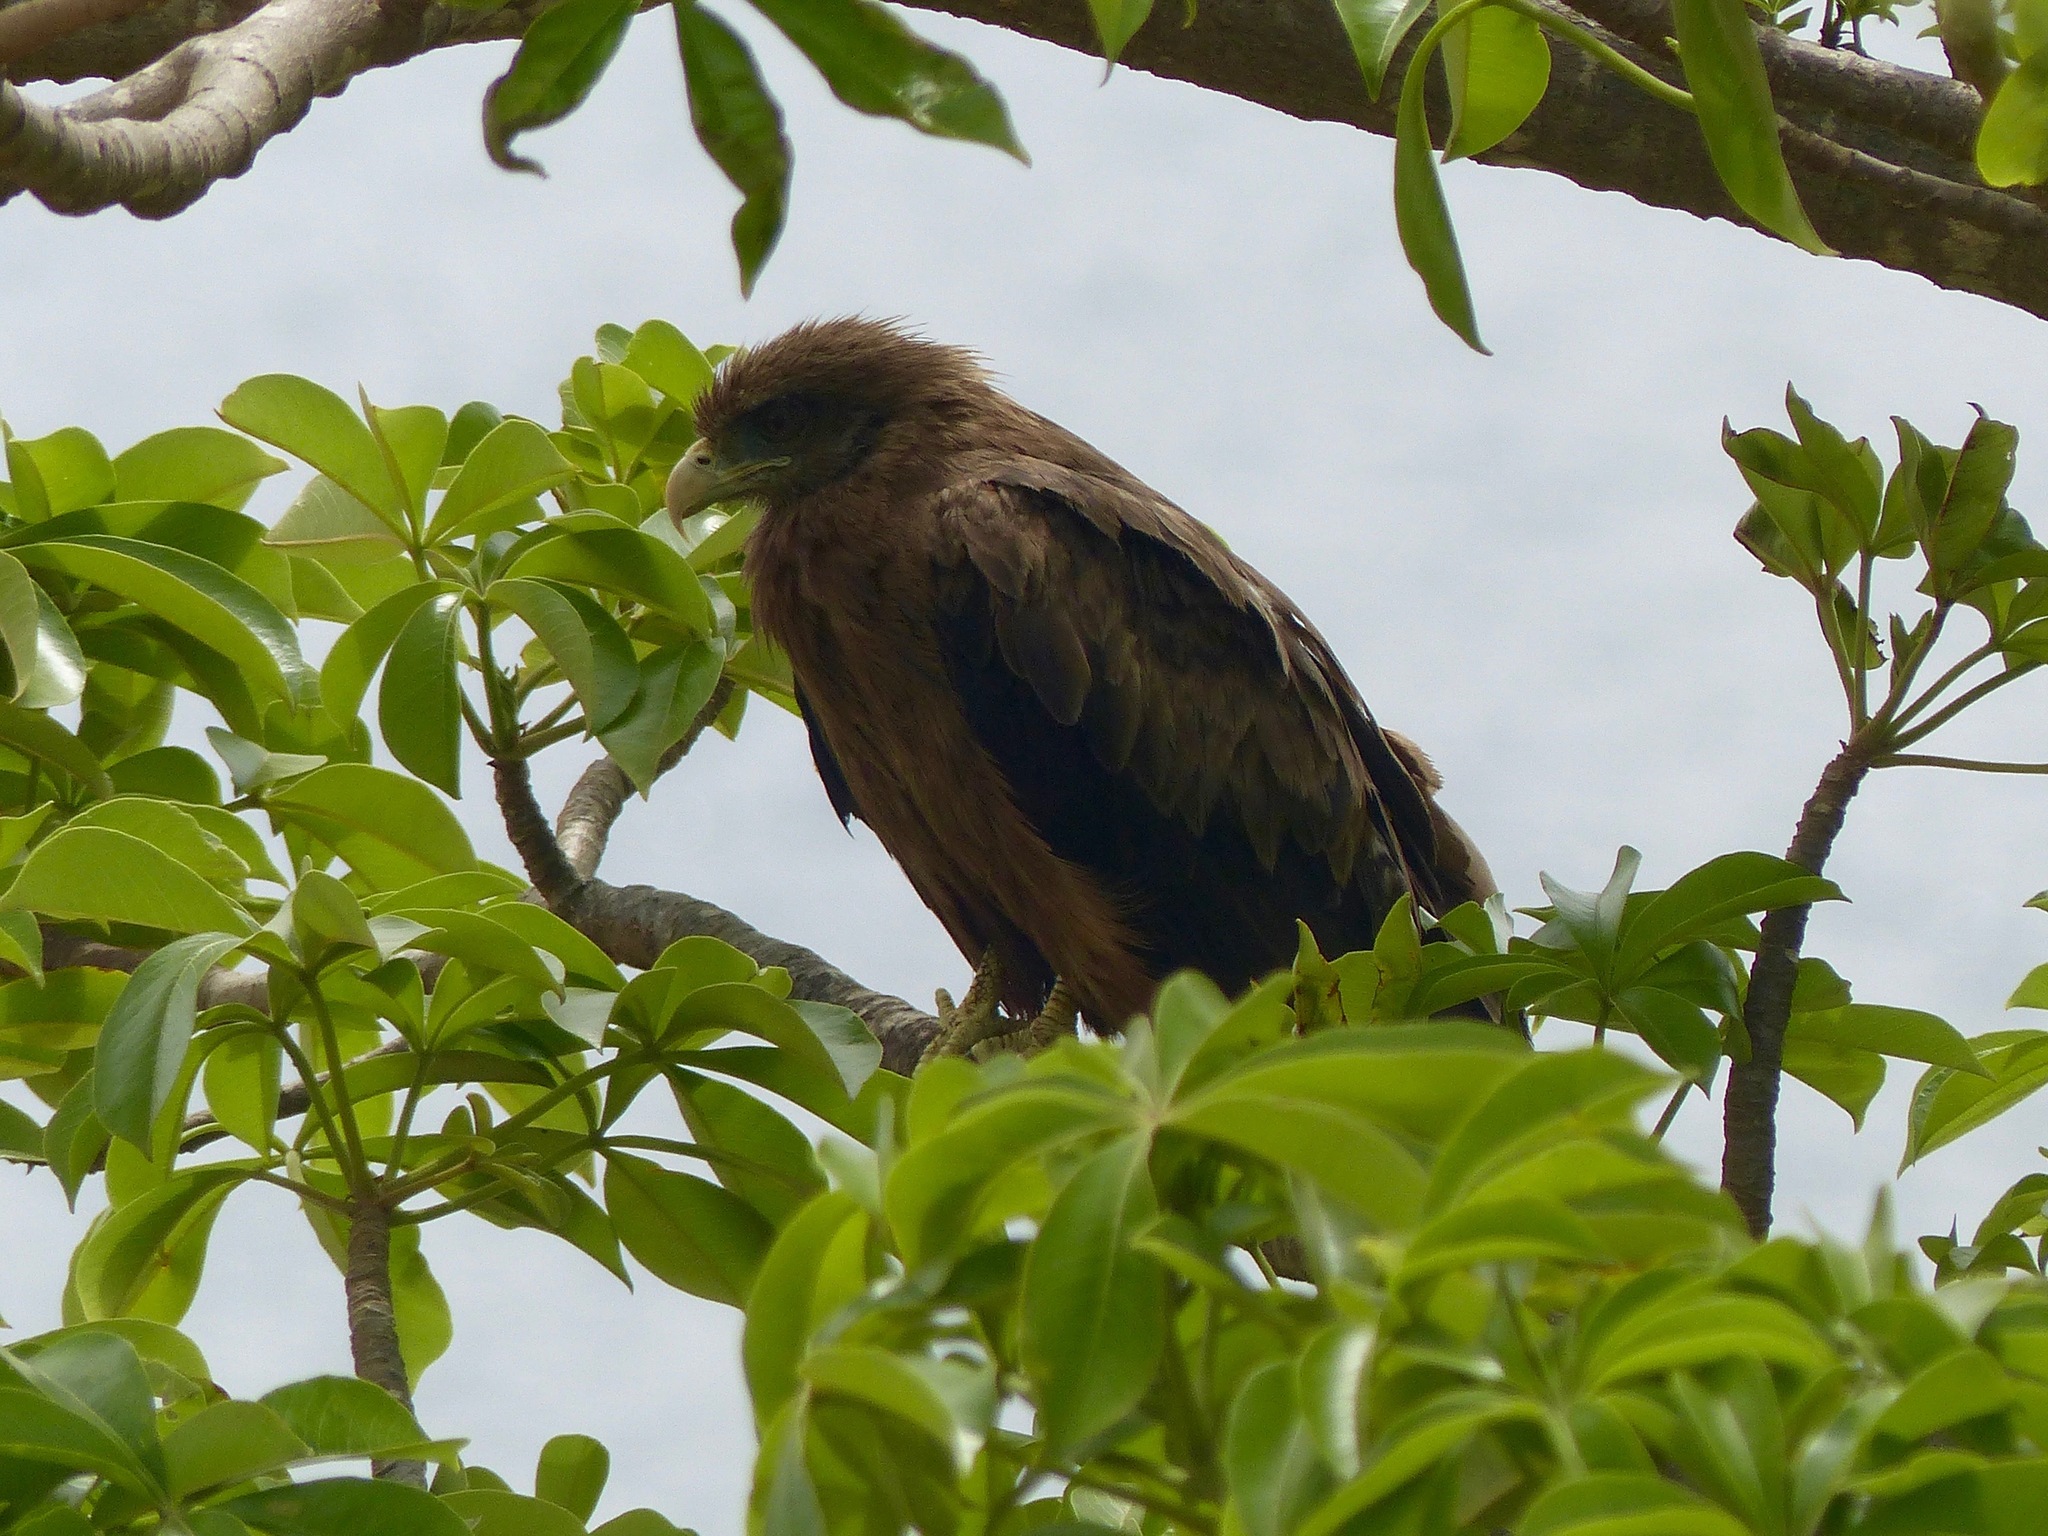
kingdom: Animalia
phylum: Chordata
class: Aves
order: Accipitriformes
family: Accipitridae
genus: Milvus
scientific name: Milvus migrans
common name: Black kite
